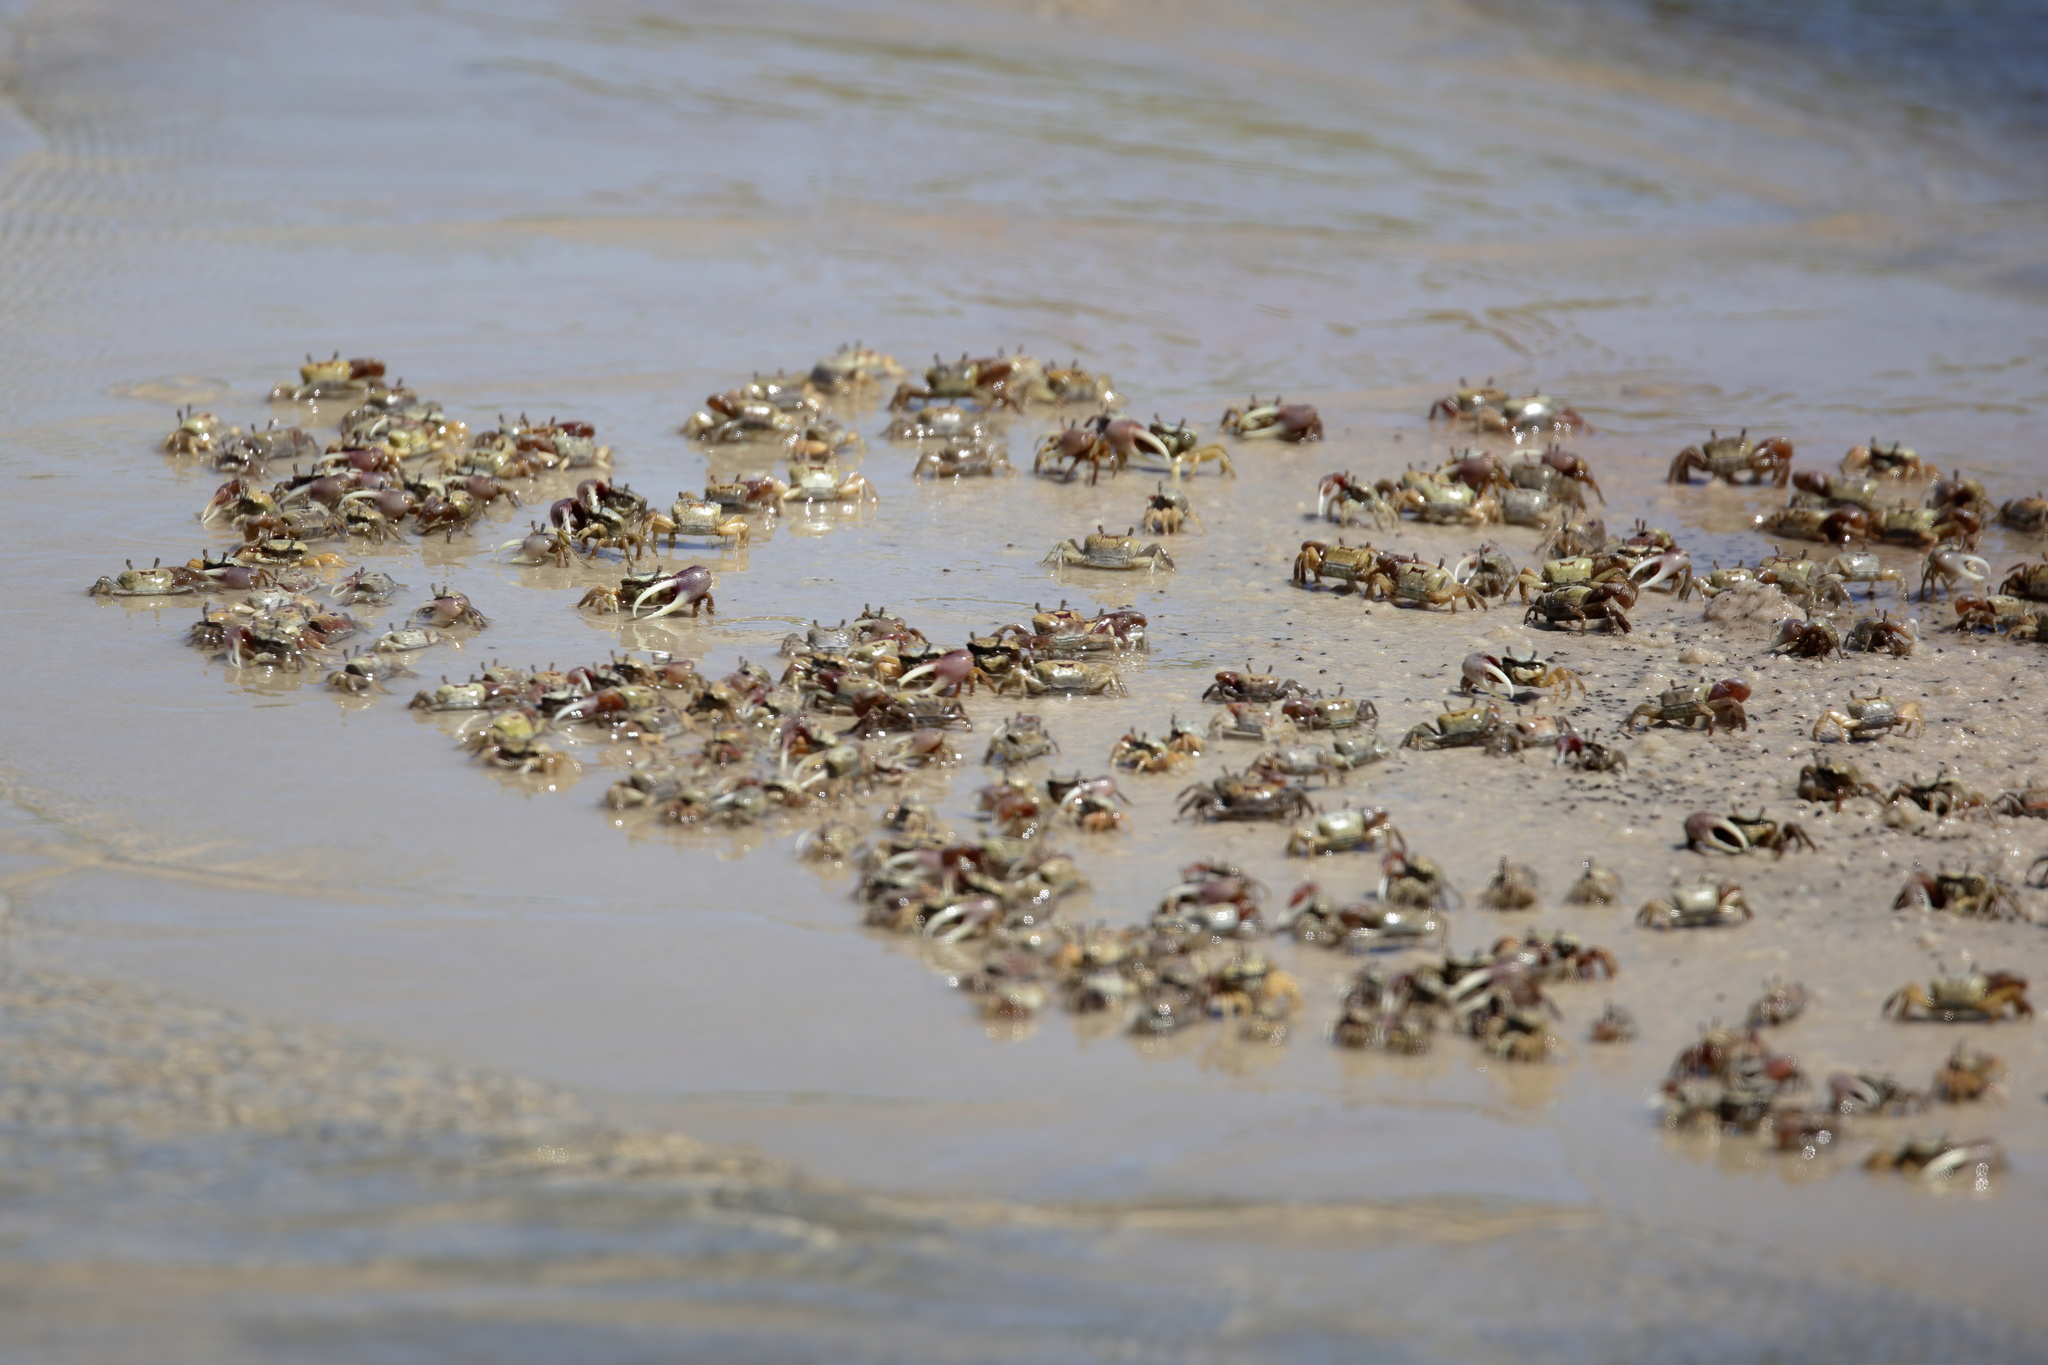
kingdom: Animalia
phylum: Arthropoda
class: Malacostraca
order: Decapoda
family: Ocypodidae
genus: Minuca
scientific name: Minuca longisignalis
